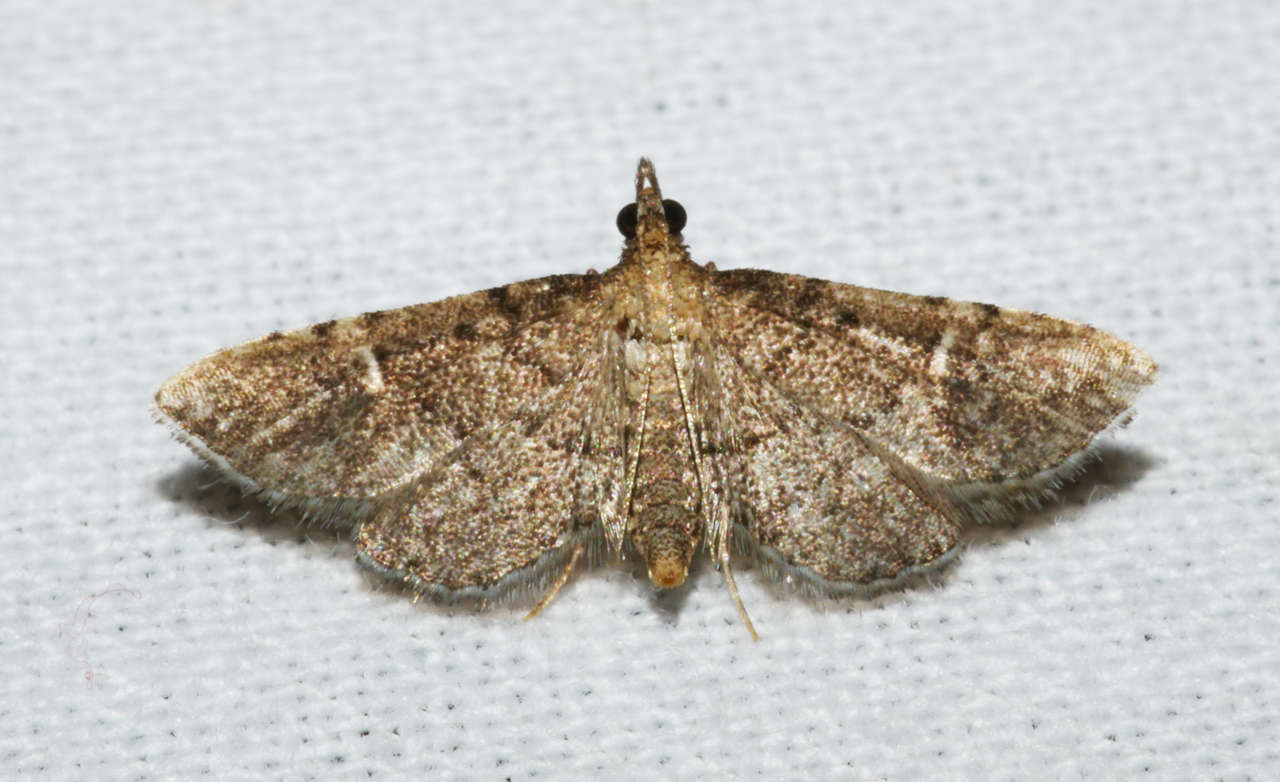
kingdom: Animalia
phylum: Arthropoda
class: Insecta
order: Lepidoptera
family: Crambidae
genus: Metasia
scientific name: Metasia capnochroa
